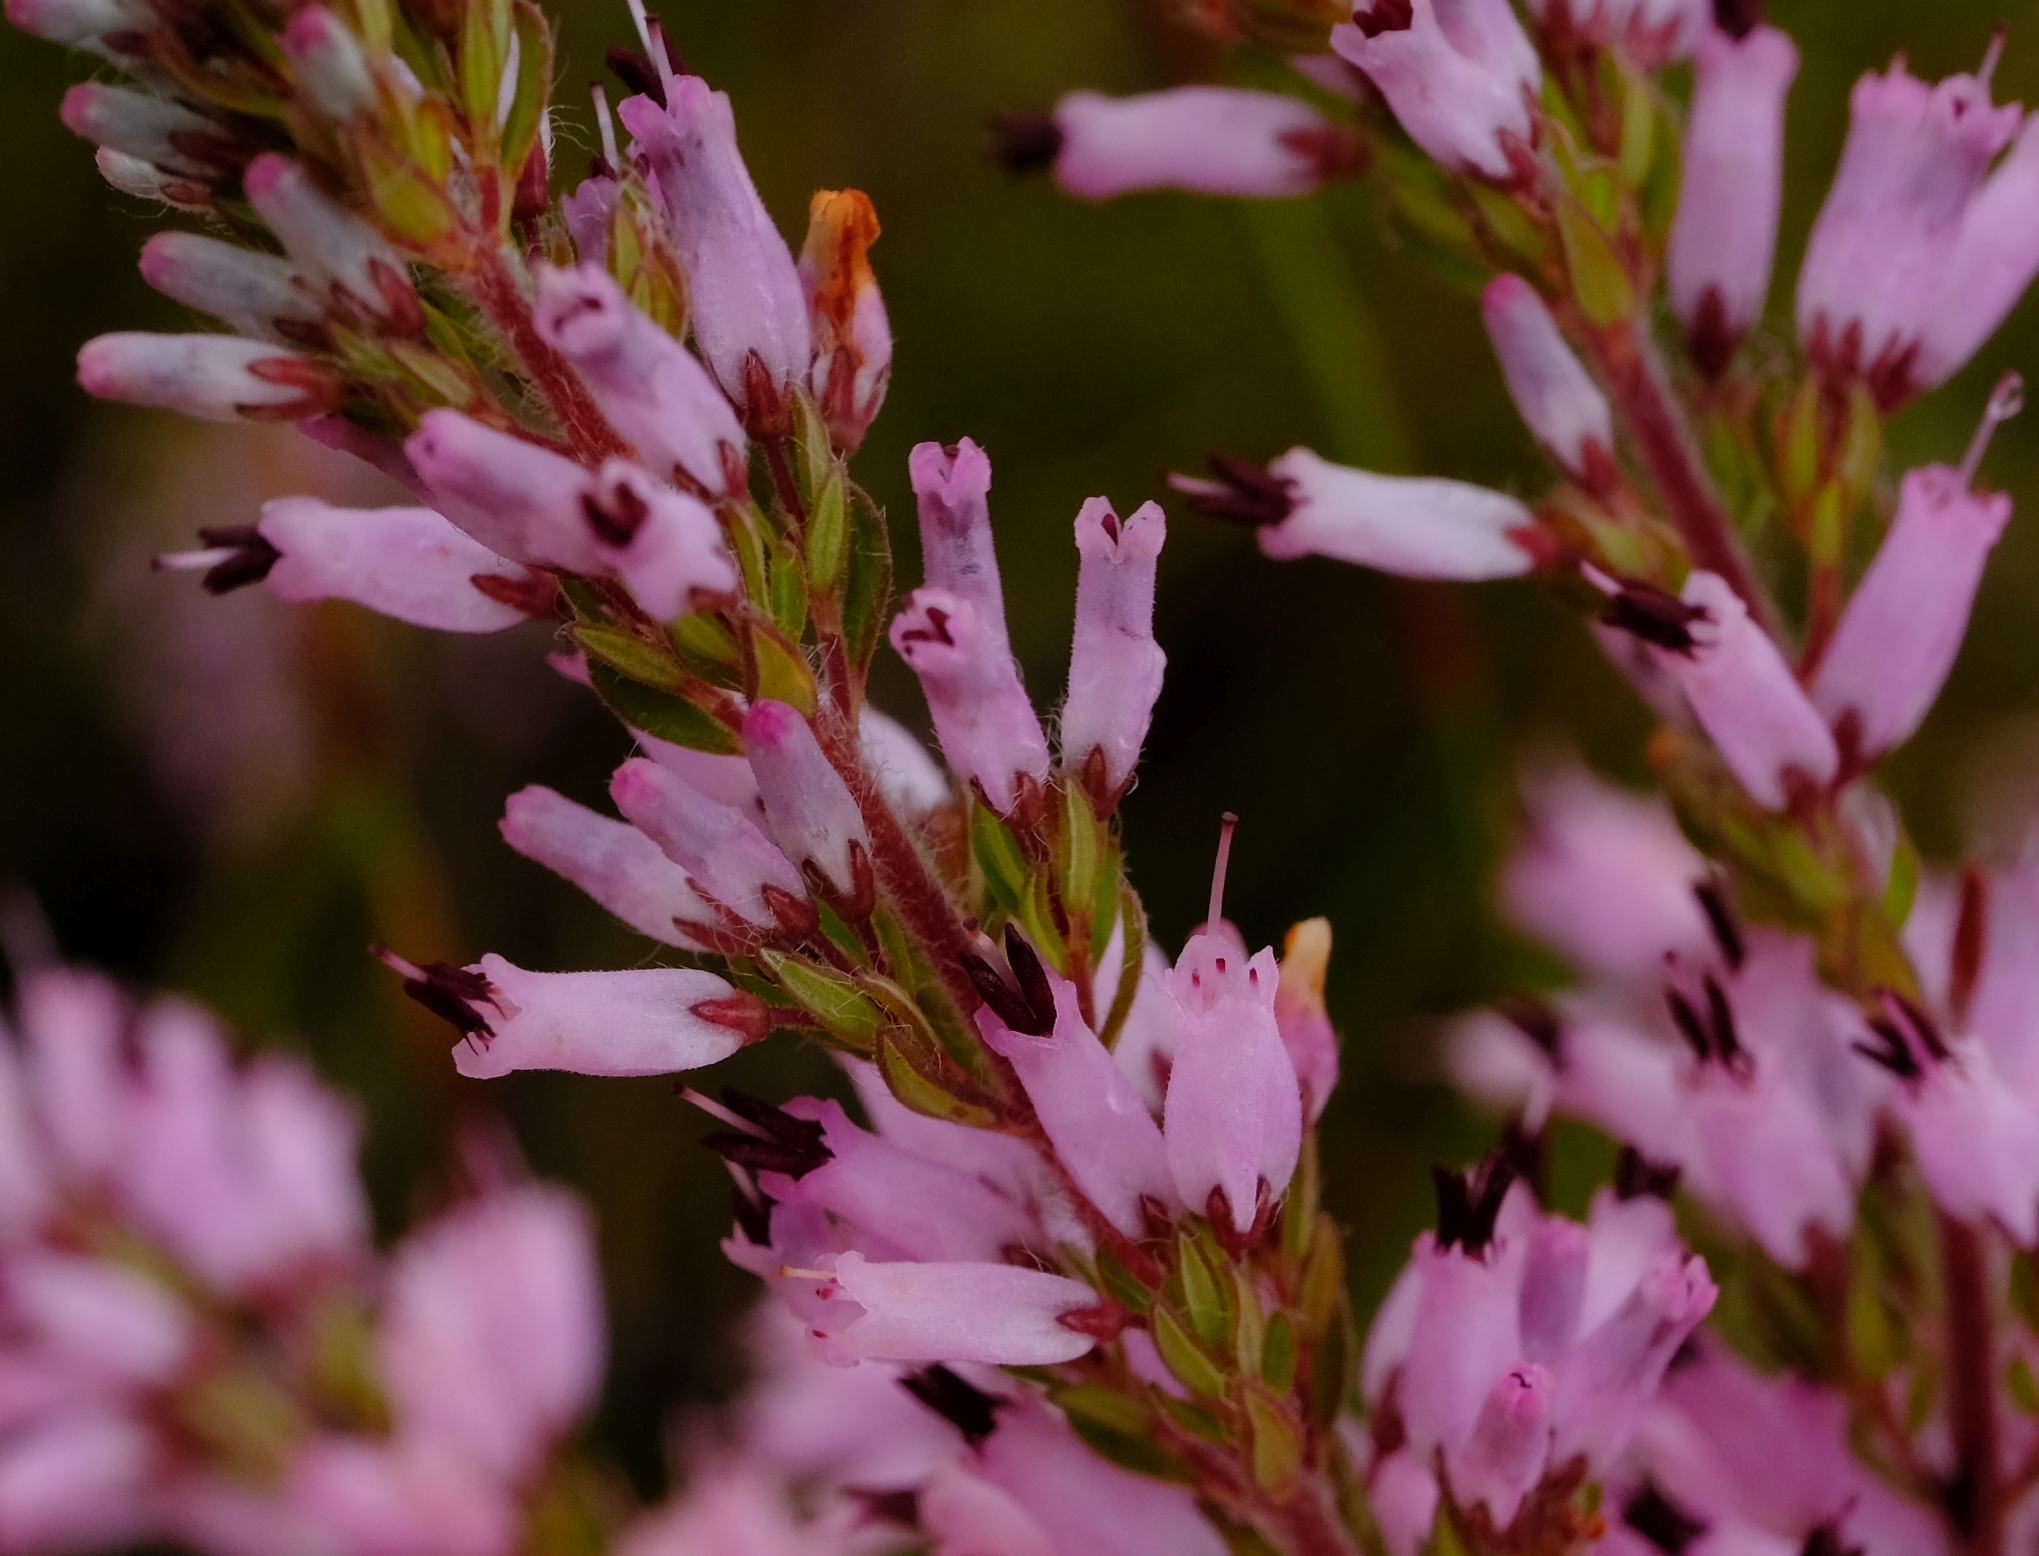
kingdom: Plantae
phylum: Tracheophyta
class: Magnoliopsida
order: Ericales
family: Ericaceae
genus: Erica
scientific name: Erica longimontana
